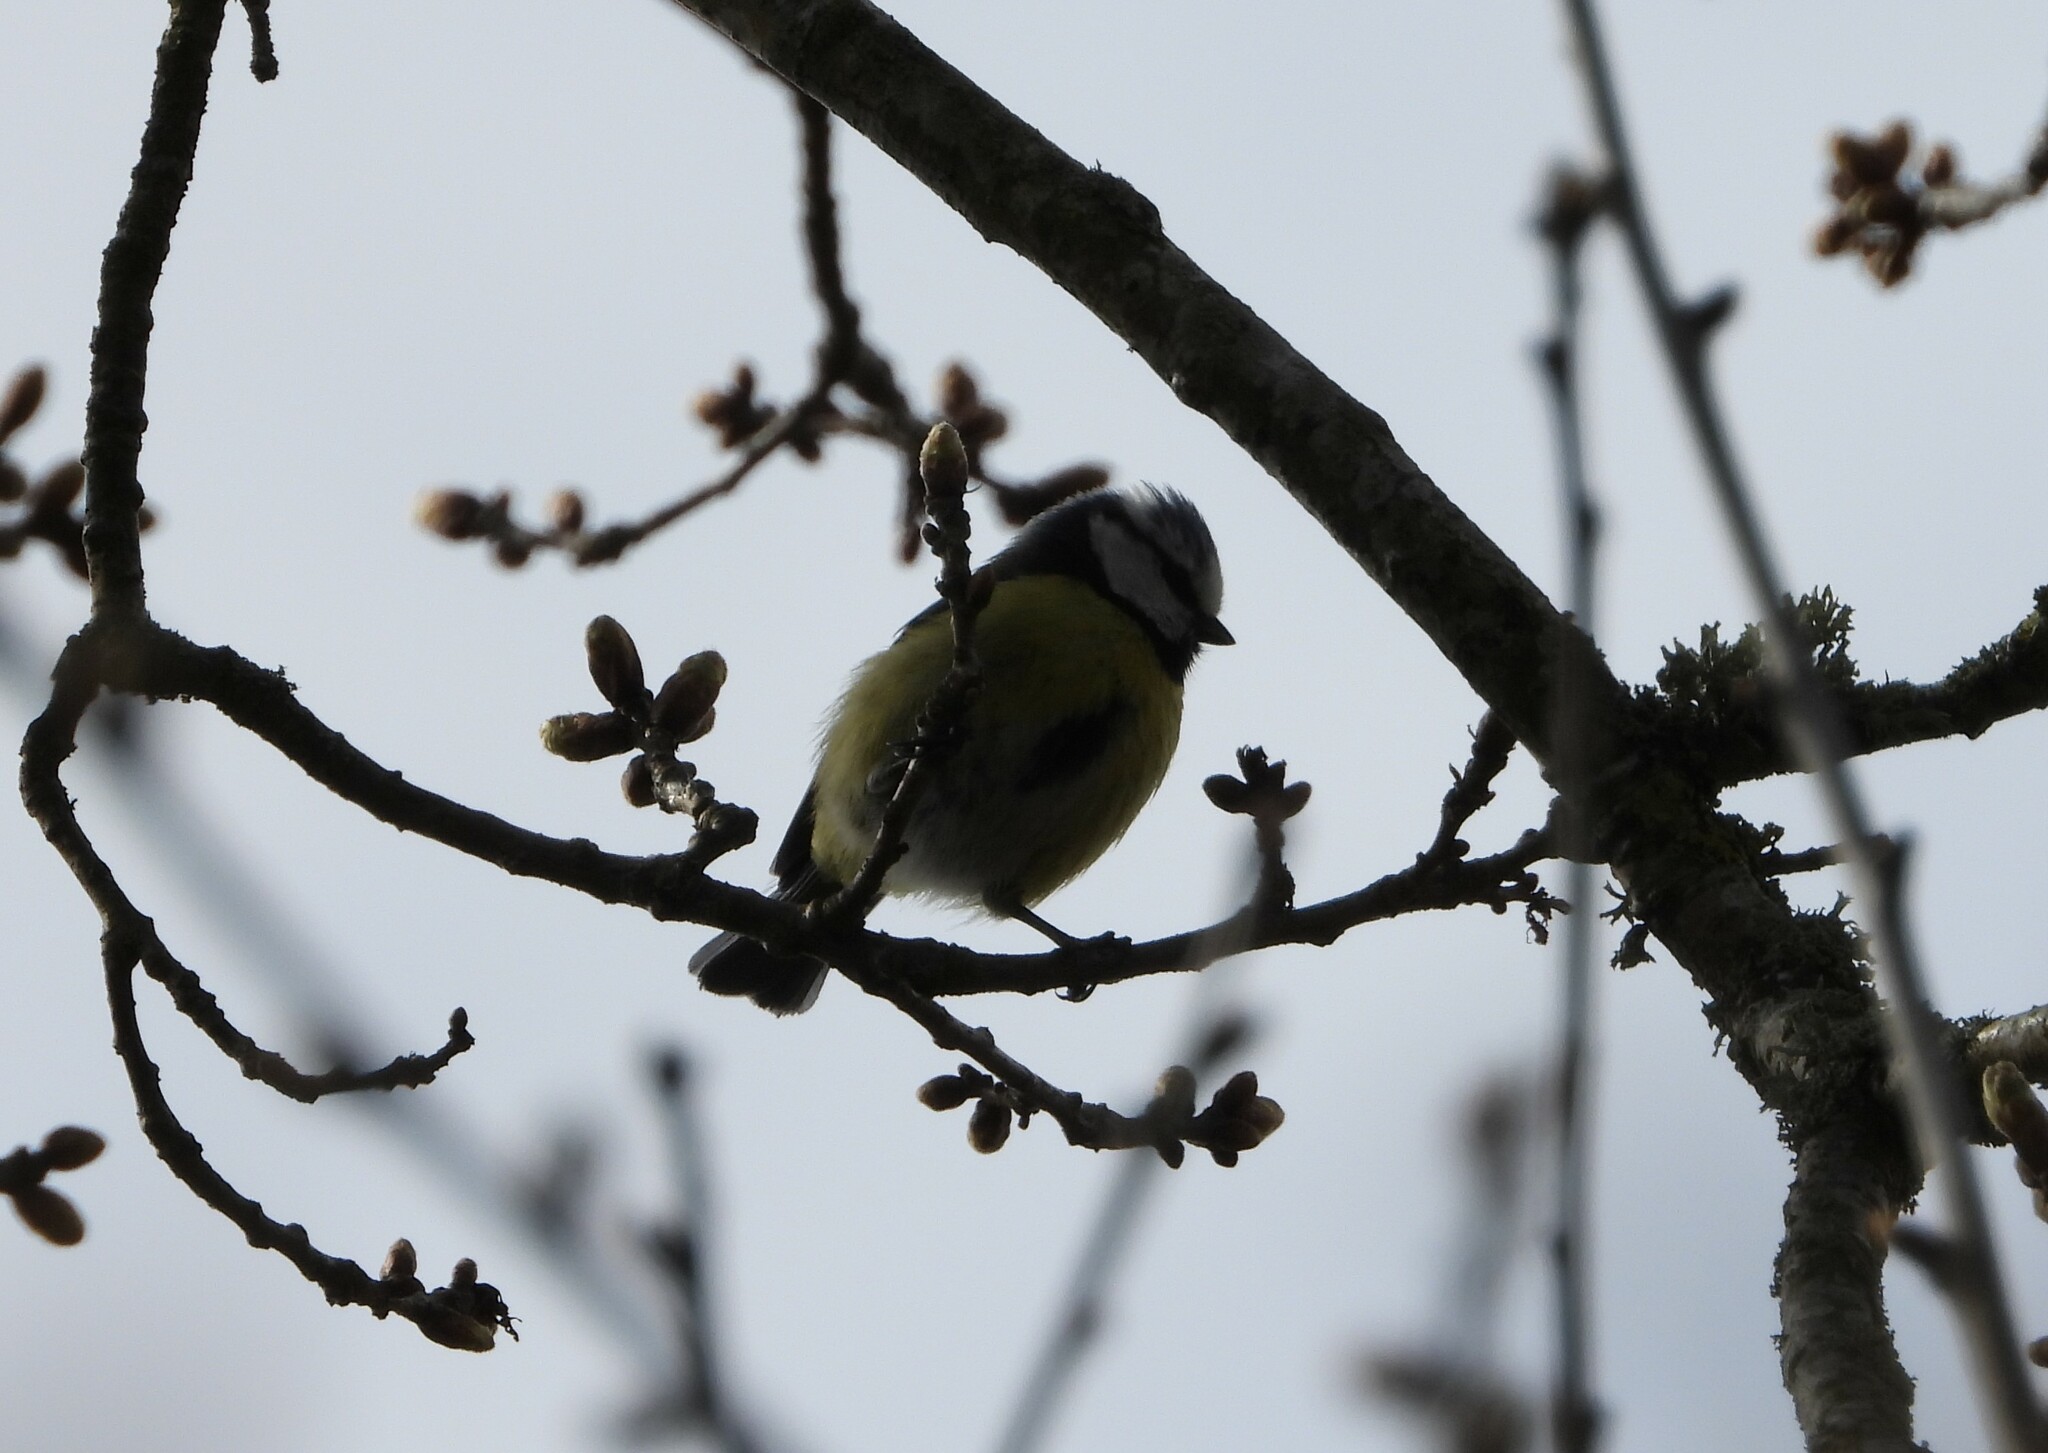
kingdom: Animalia
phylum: Chordata
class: Aves
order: Passeriformes
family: Paridae
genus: Cyanistes
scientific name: Cyanistes caeruleus
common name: Eurasian blue tit
